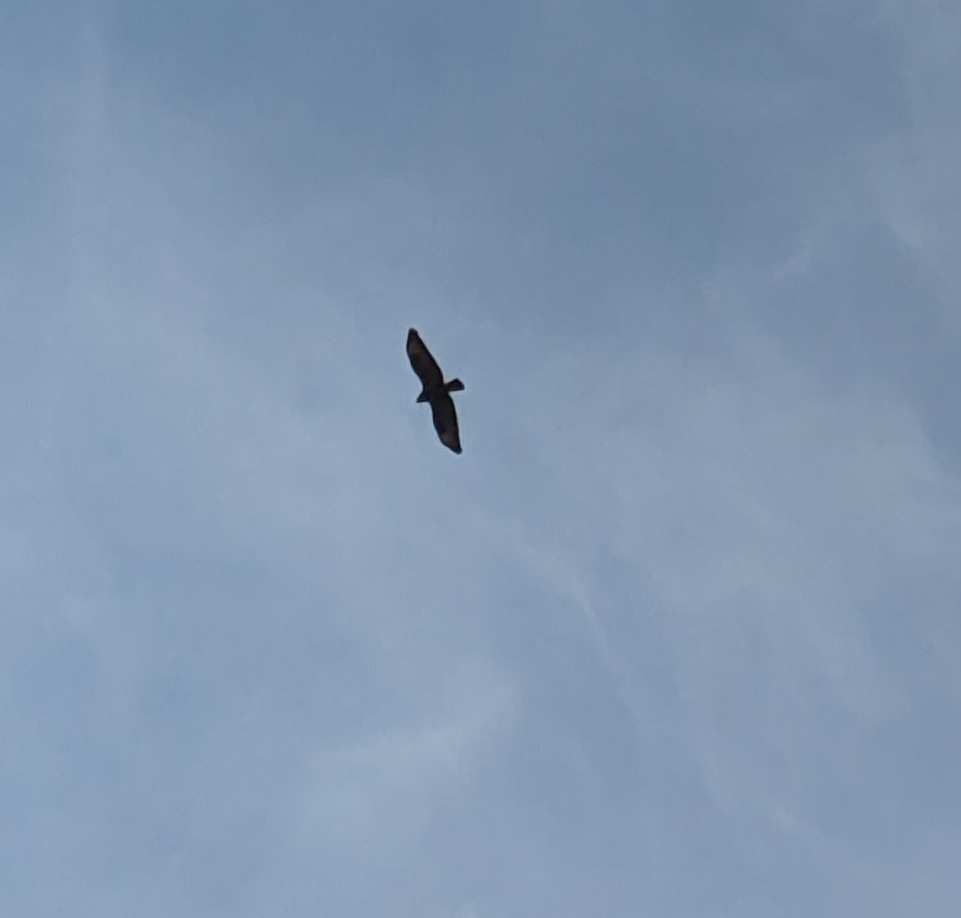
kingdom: Animalia
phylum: Chordata
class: Aves
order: Accipitriformes
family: Accipitridae
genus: Buteo
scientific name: Buteo buteo
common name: Common buzzard
